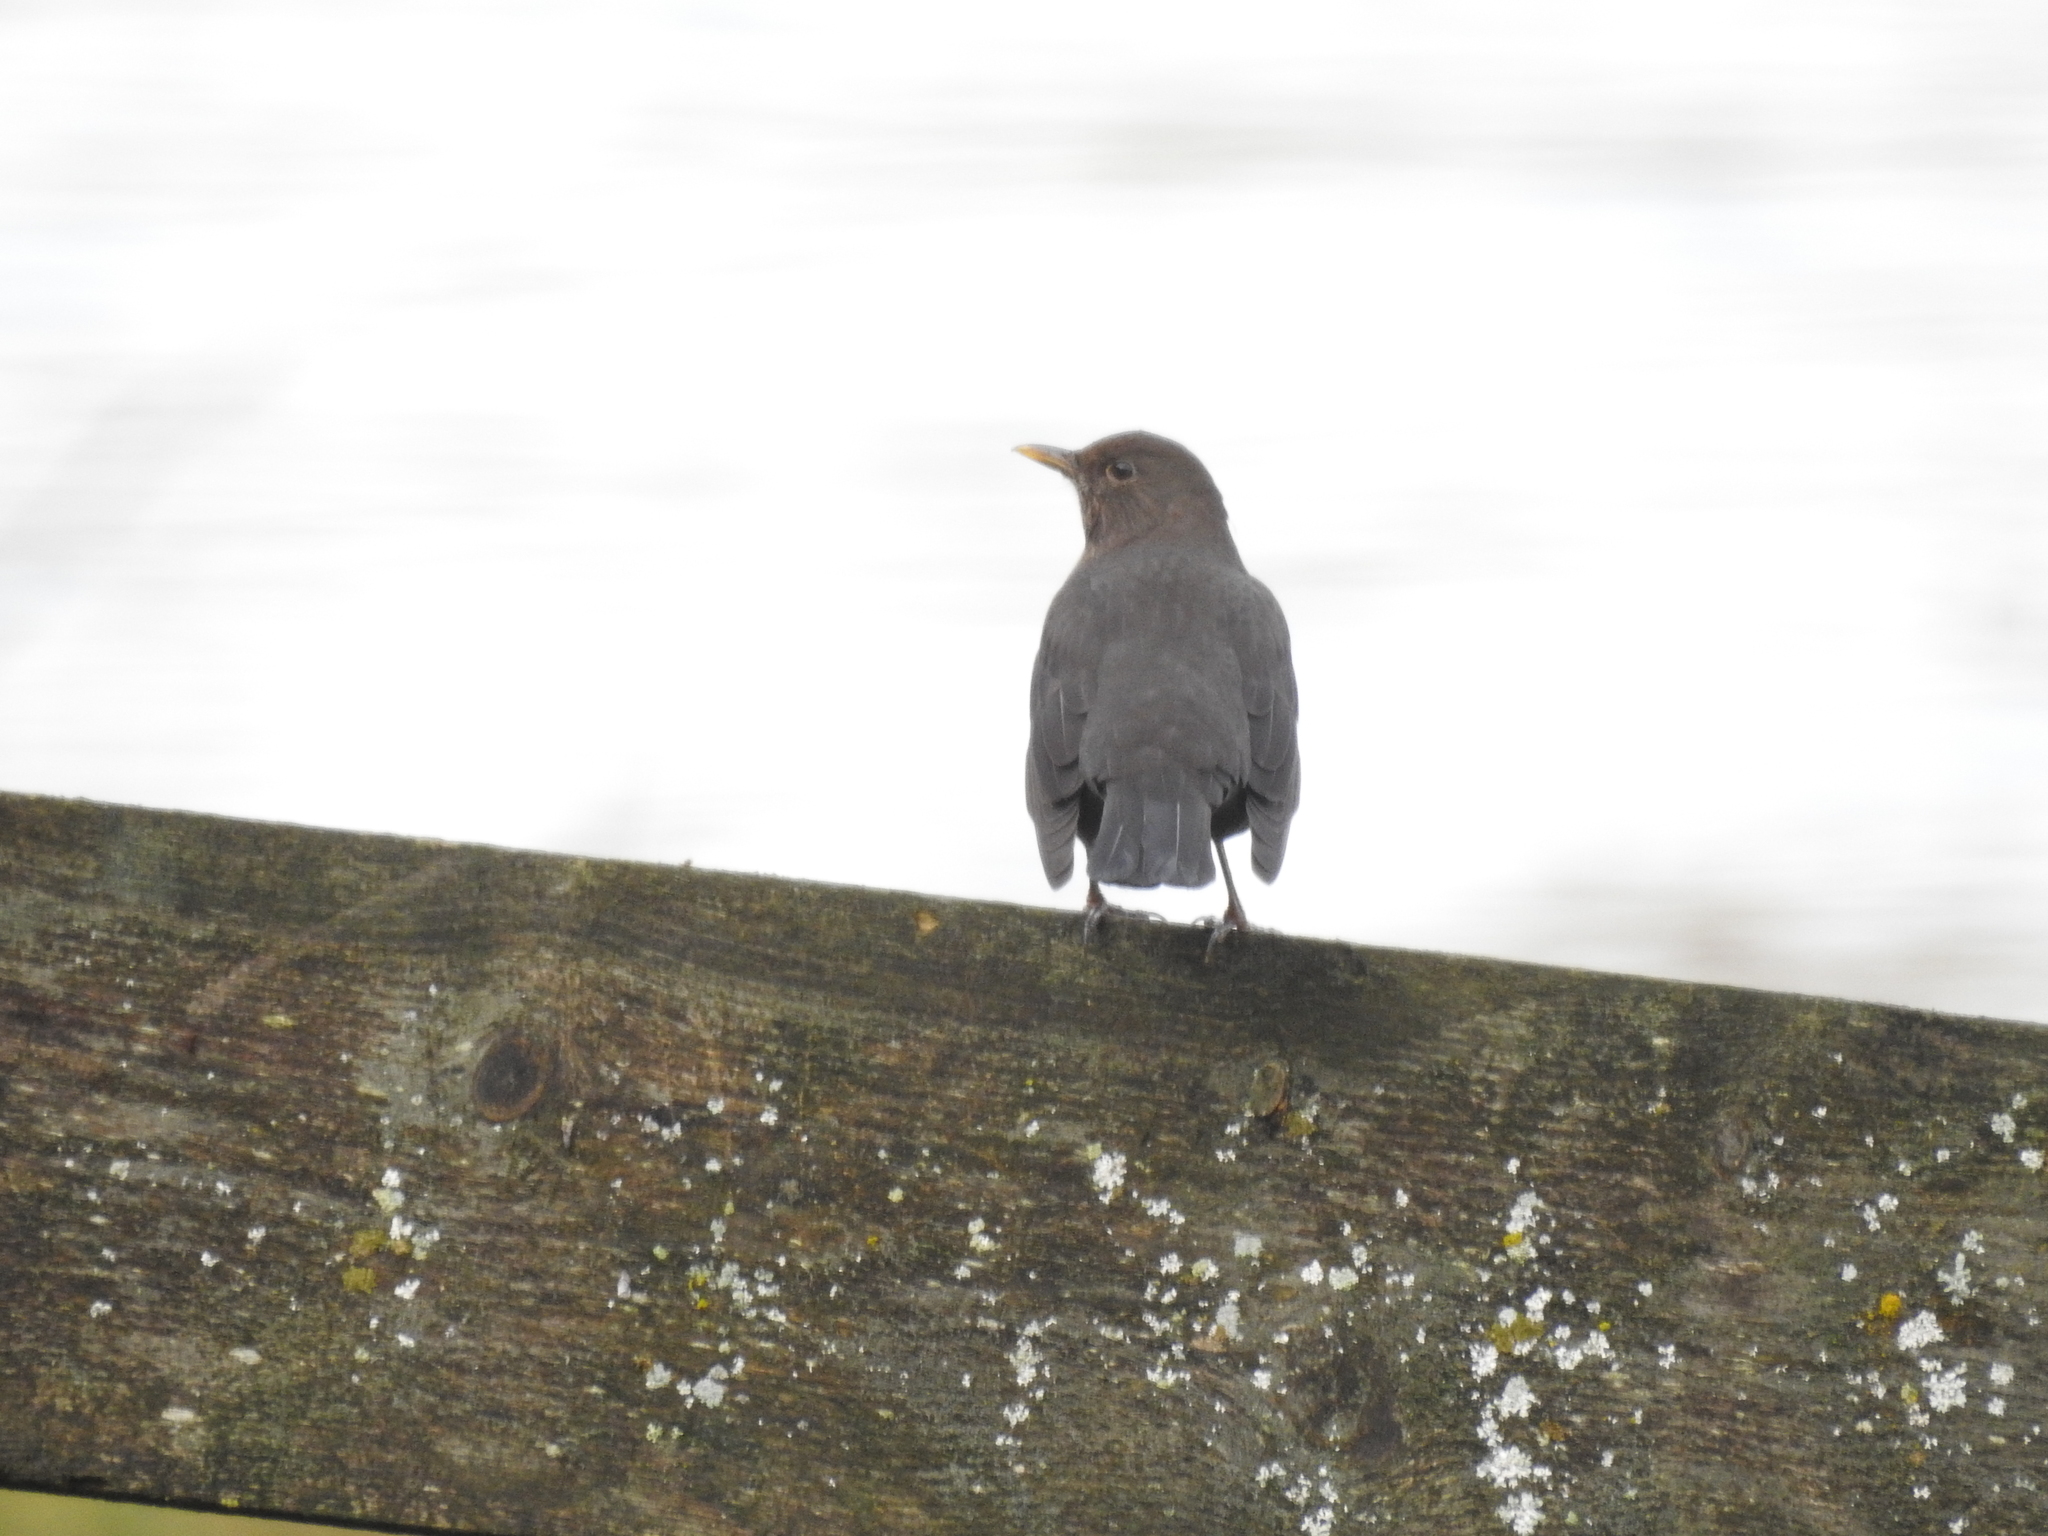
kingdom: Animalia
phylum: Chordata
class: Aves
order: Passeriformes
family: Turdidae
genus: Turdus
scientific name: Turdus merula
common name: Common blackbird
